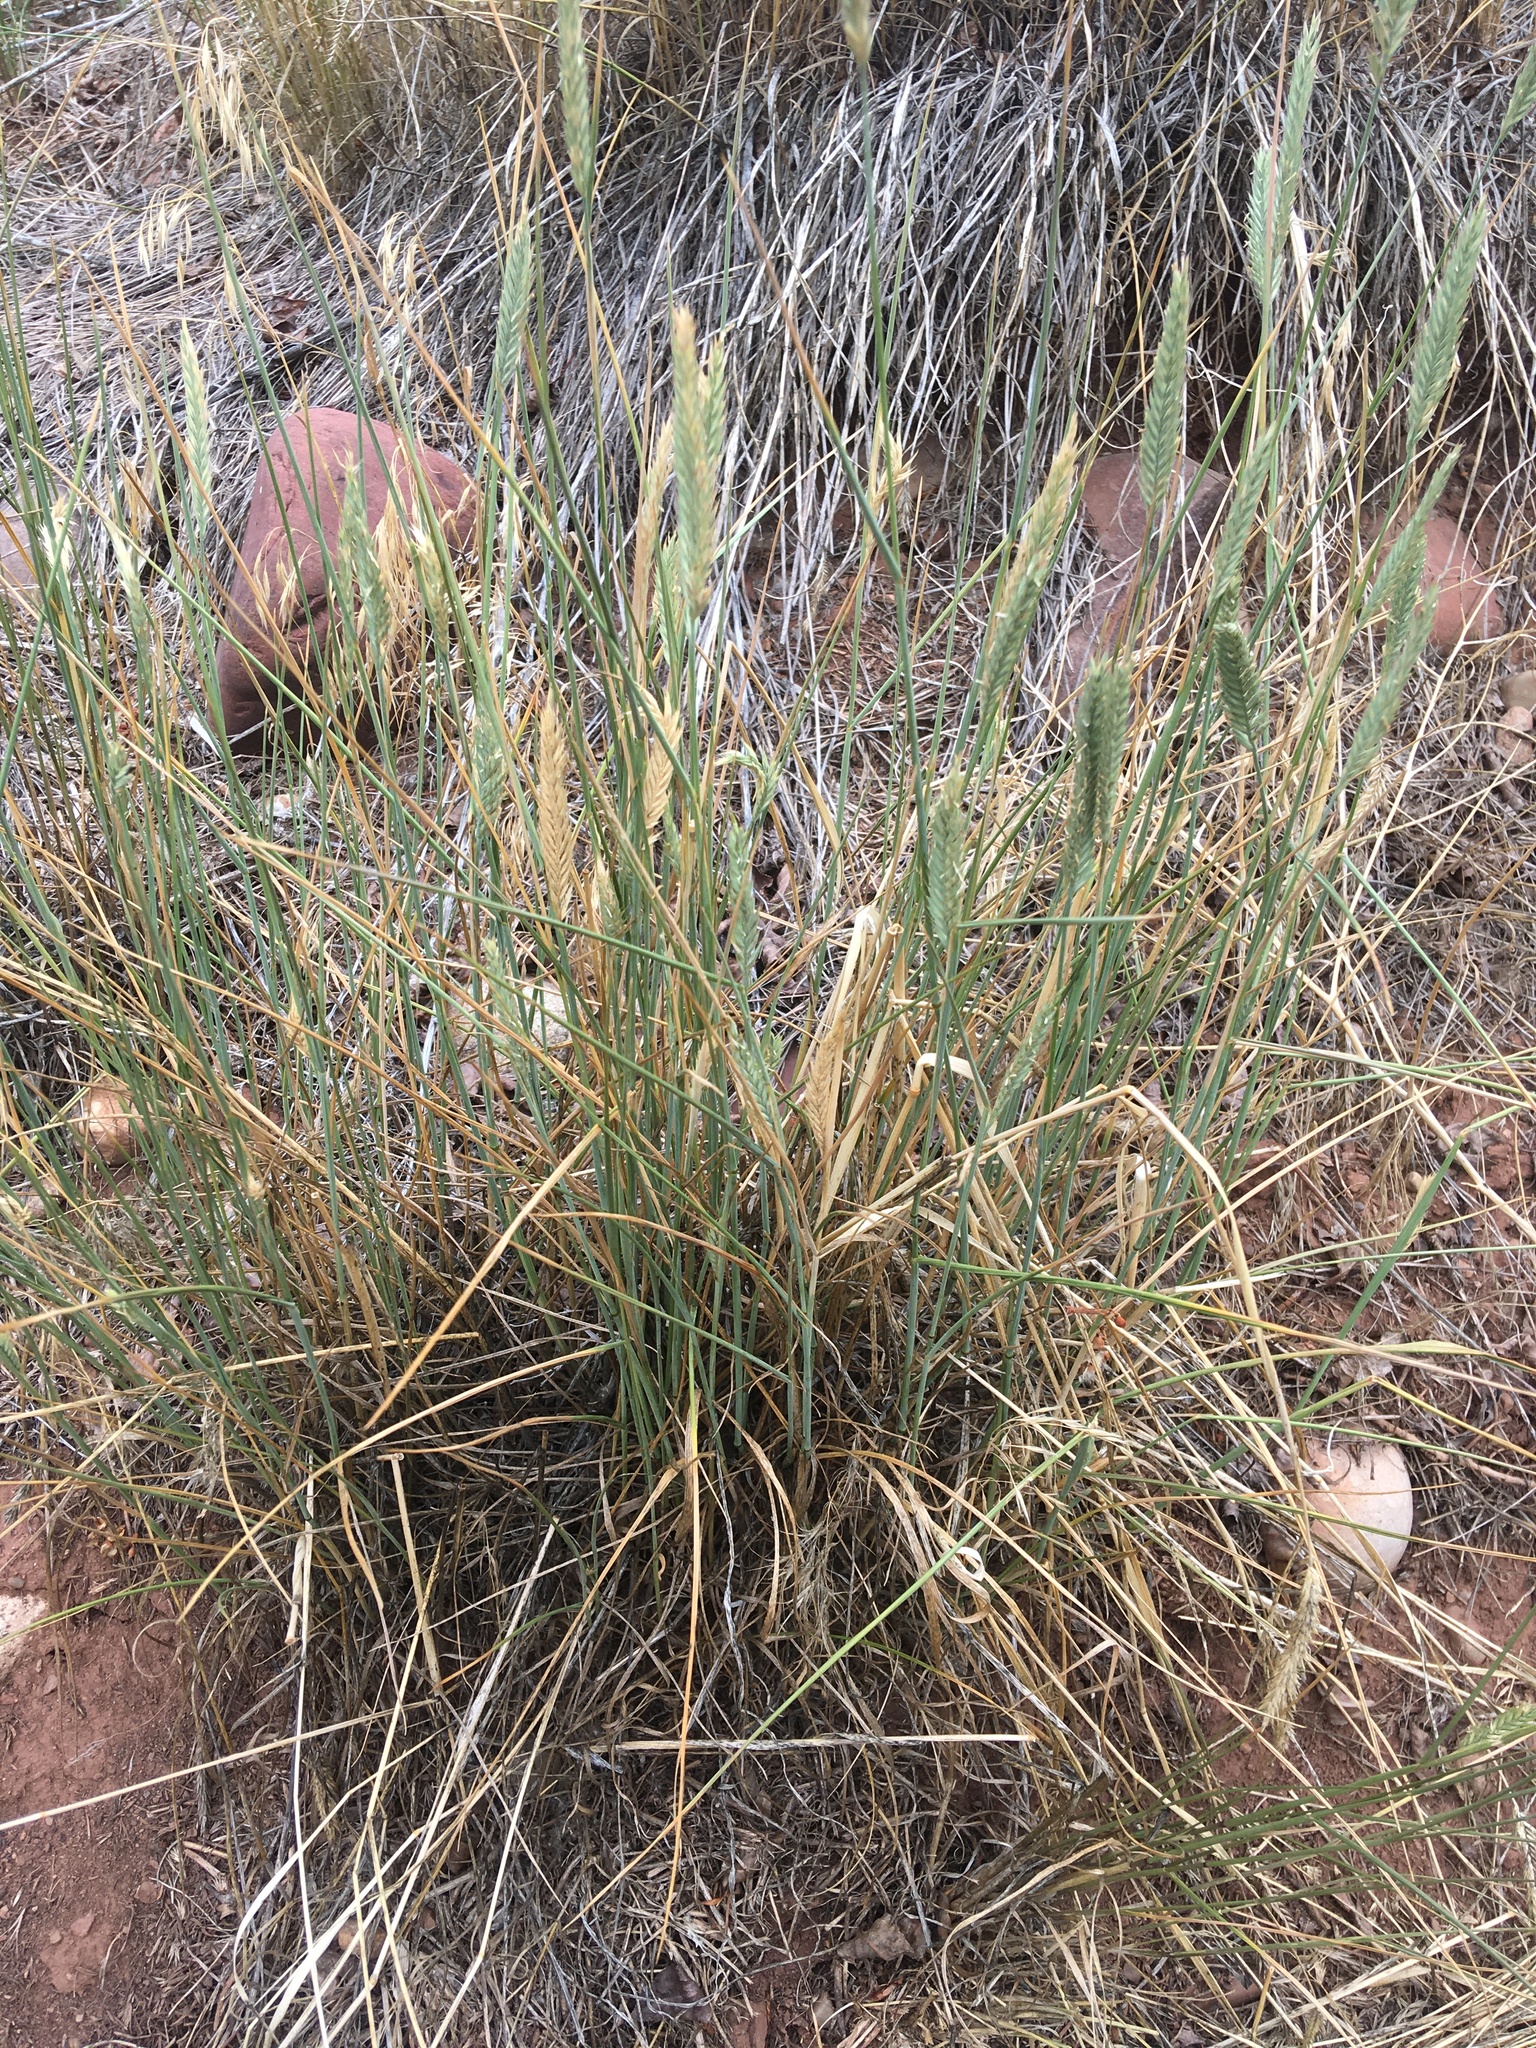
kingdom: Plantae
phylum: Tracheophyta
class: Liliopsida
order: Poales
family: Poaceae
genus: Agropyron
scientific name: Agropyron cristatum
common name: Crested wheatgrass
